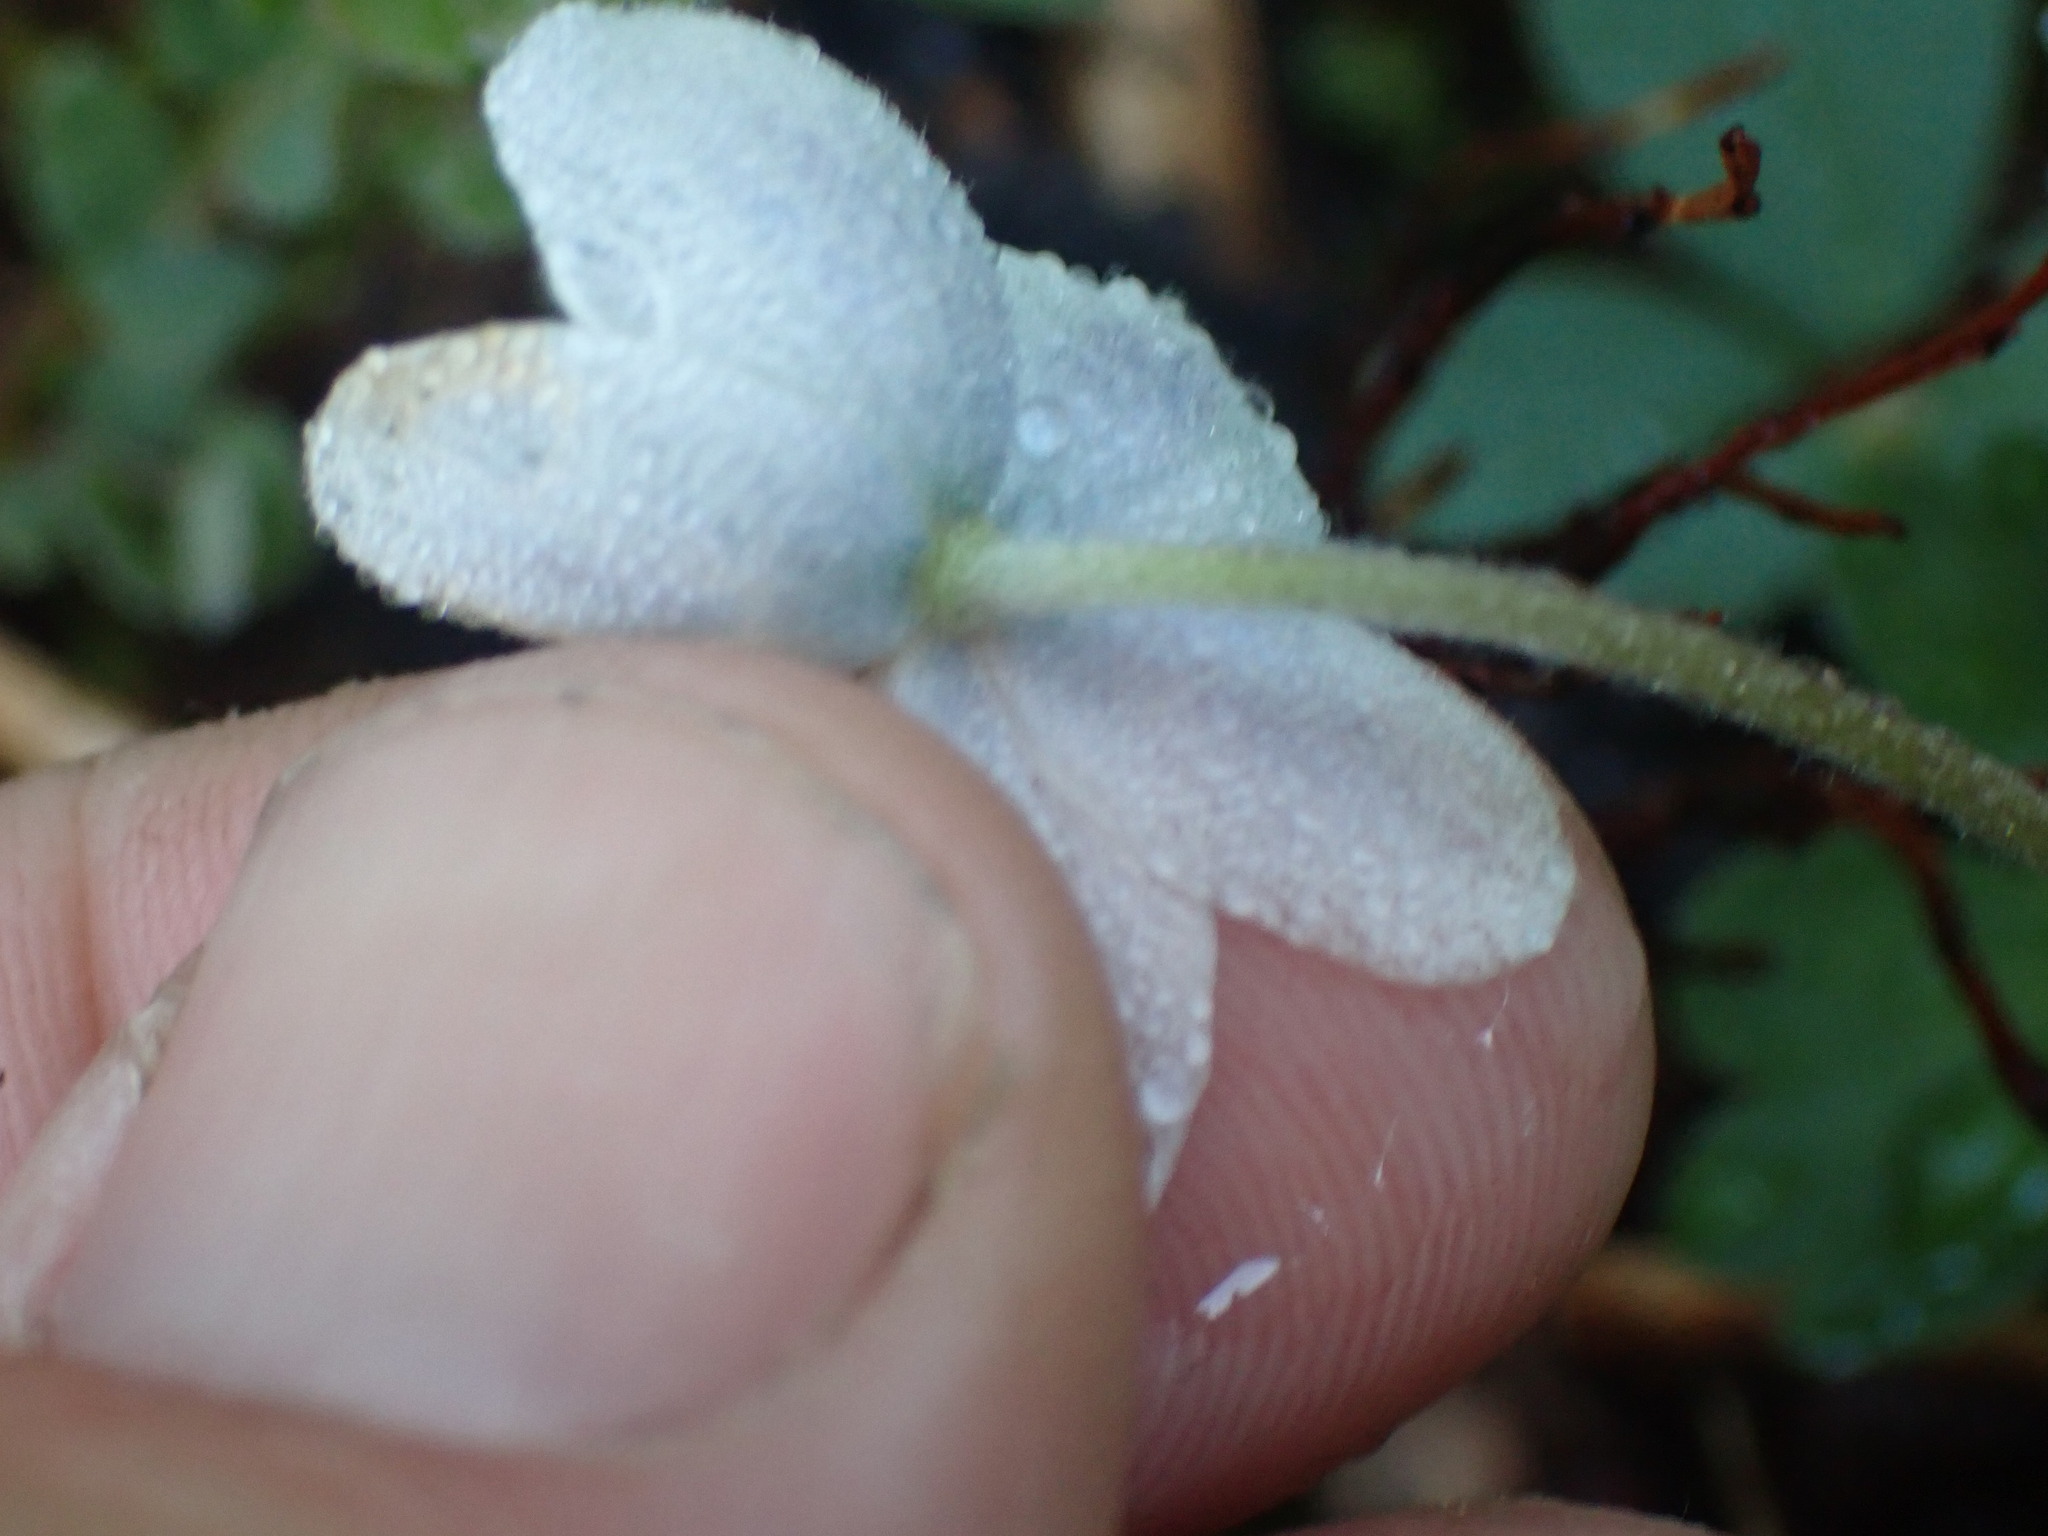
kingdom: Plantae
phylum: Tracheophyta
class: Magnoliopsida
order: Ranunculales
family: Ranunculaceae
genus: Anemone
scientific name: Anemone parviflora
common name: Northern anemone
